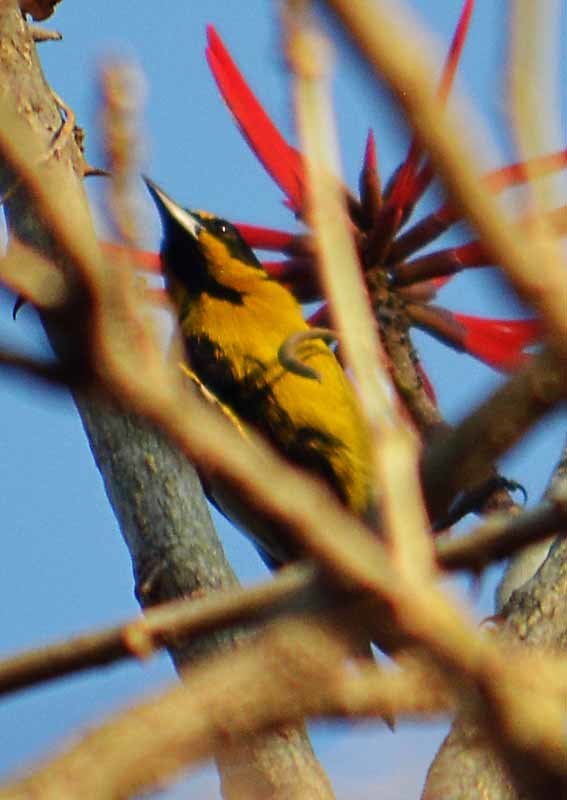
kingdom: Animalia
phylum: Chordata
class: Aves
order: Passeriformes
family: Icteridae
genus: Icterus
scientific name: Icterus abeillei
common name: Black-backed oriole
